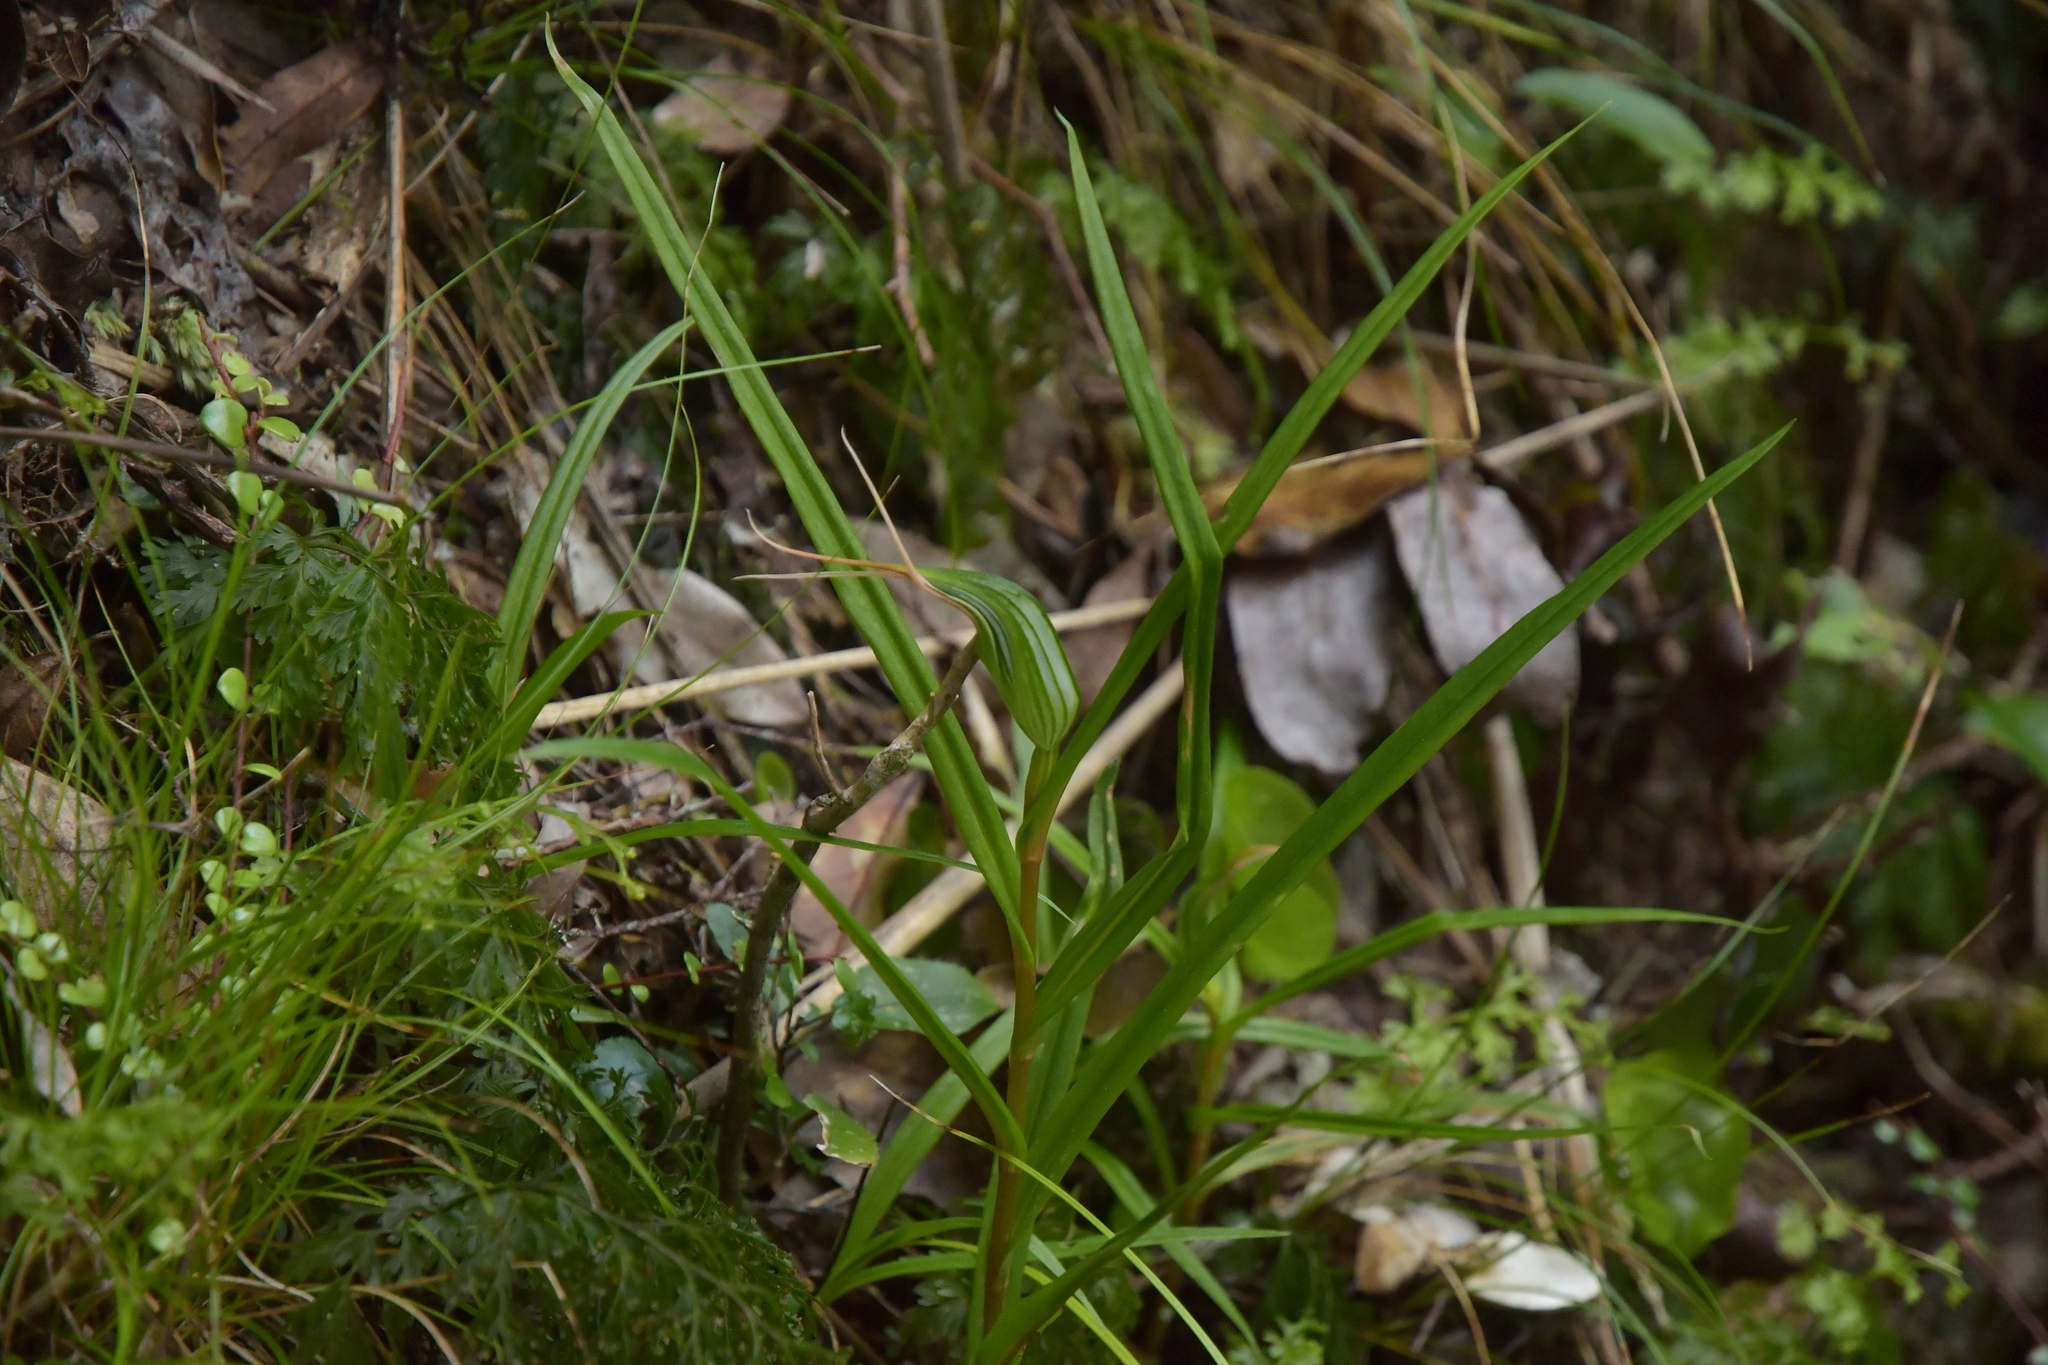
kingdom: Plantae
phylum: Tracheophyta
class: Liliopsida
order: Asparagales
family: Orchidaceae
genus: Pterostylis
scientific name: Pterostylis banksii
